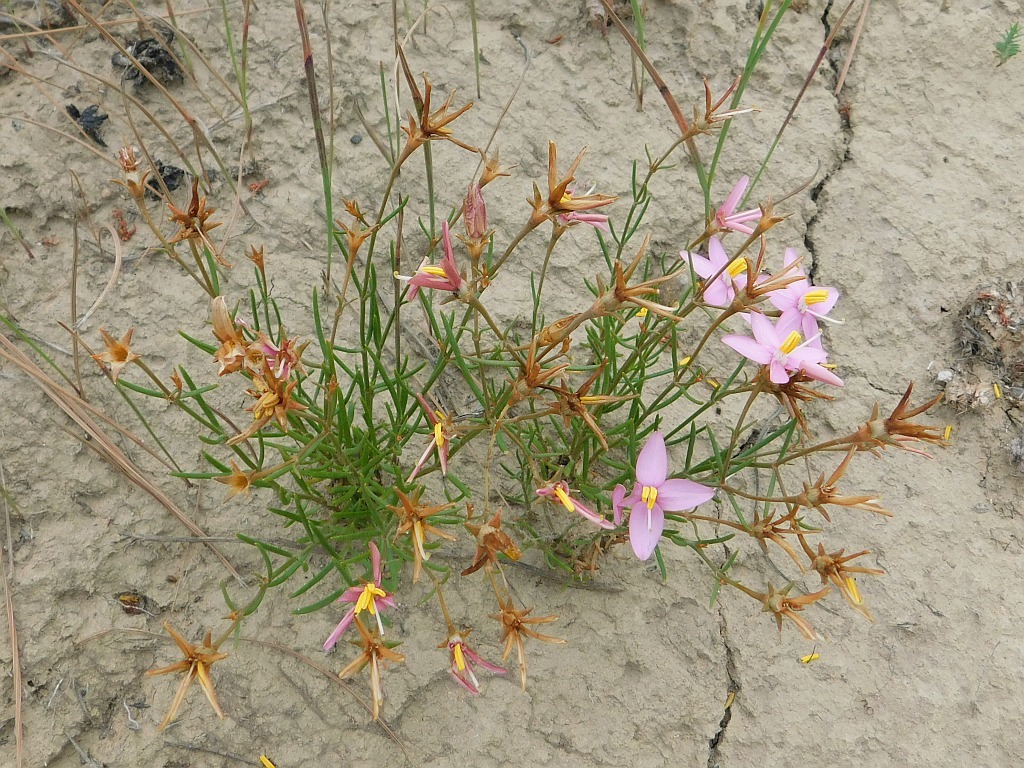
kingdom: Plantae
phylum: Tracheophyta
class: Magnoliopsida
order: Gentianales
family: Gentianaceae
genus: Chironia
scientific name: Chironia linoides
